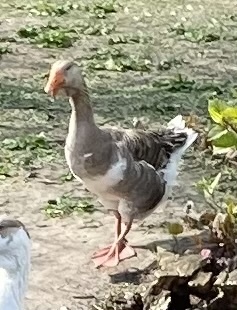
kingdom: Animalia
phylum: Chordata
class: Aves
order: Anseriformes
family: Anatidae
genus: Anser
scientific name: Anser
